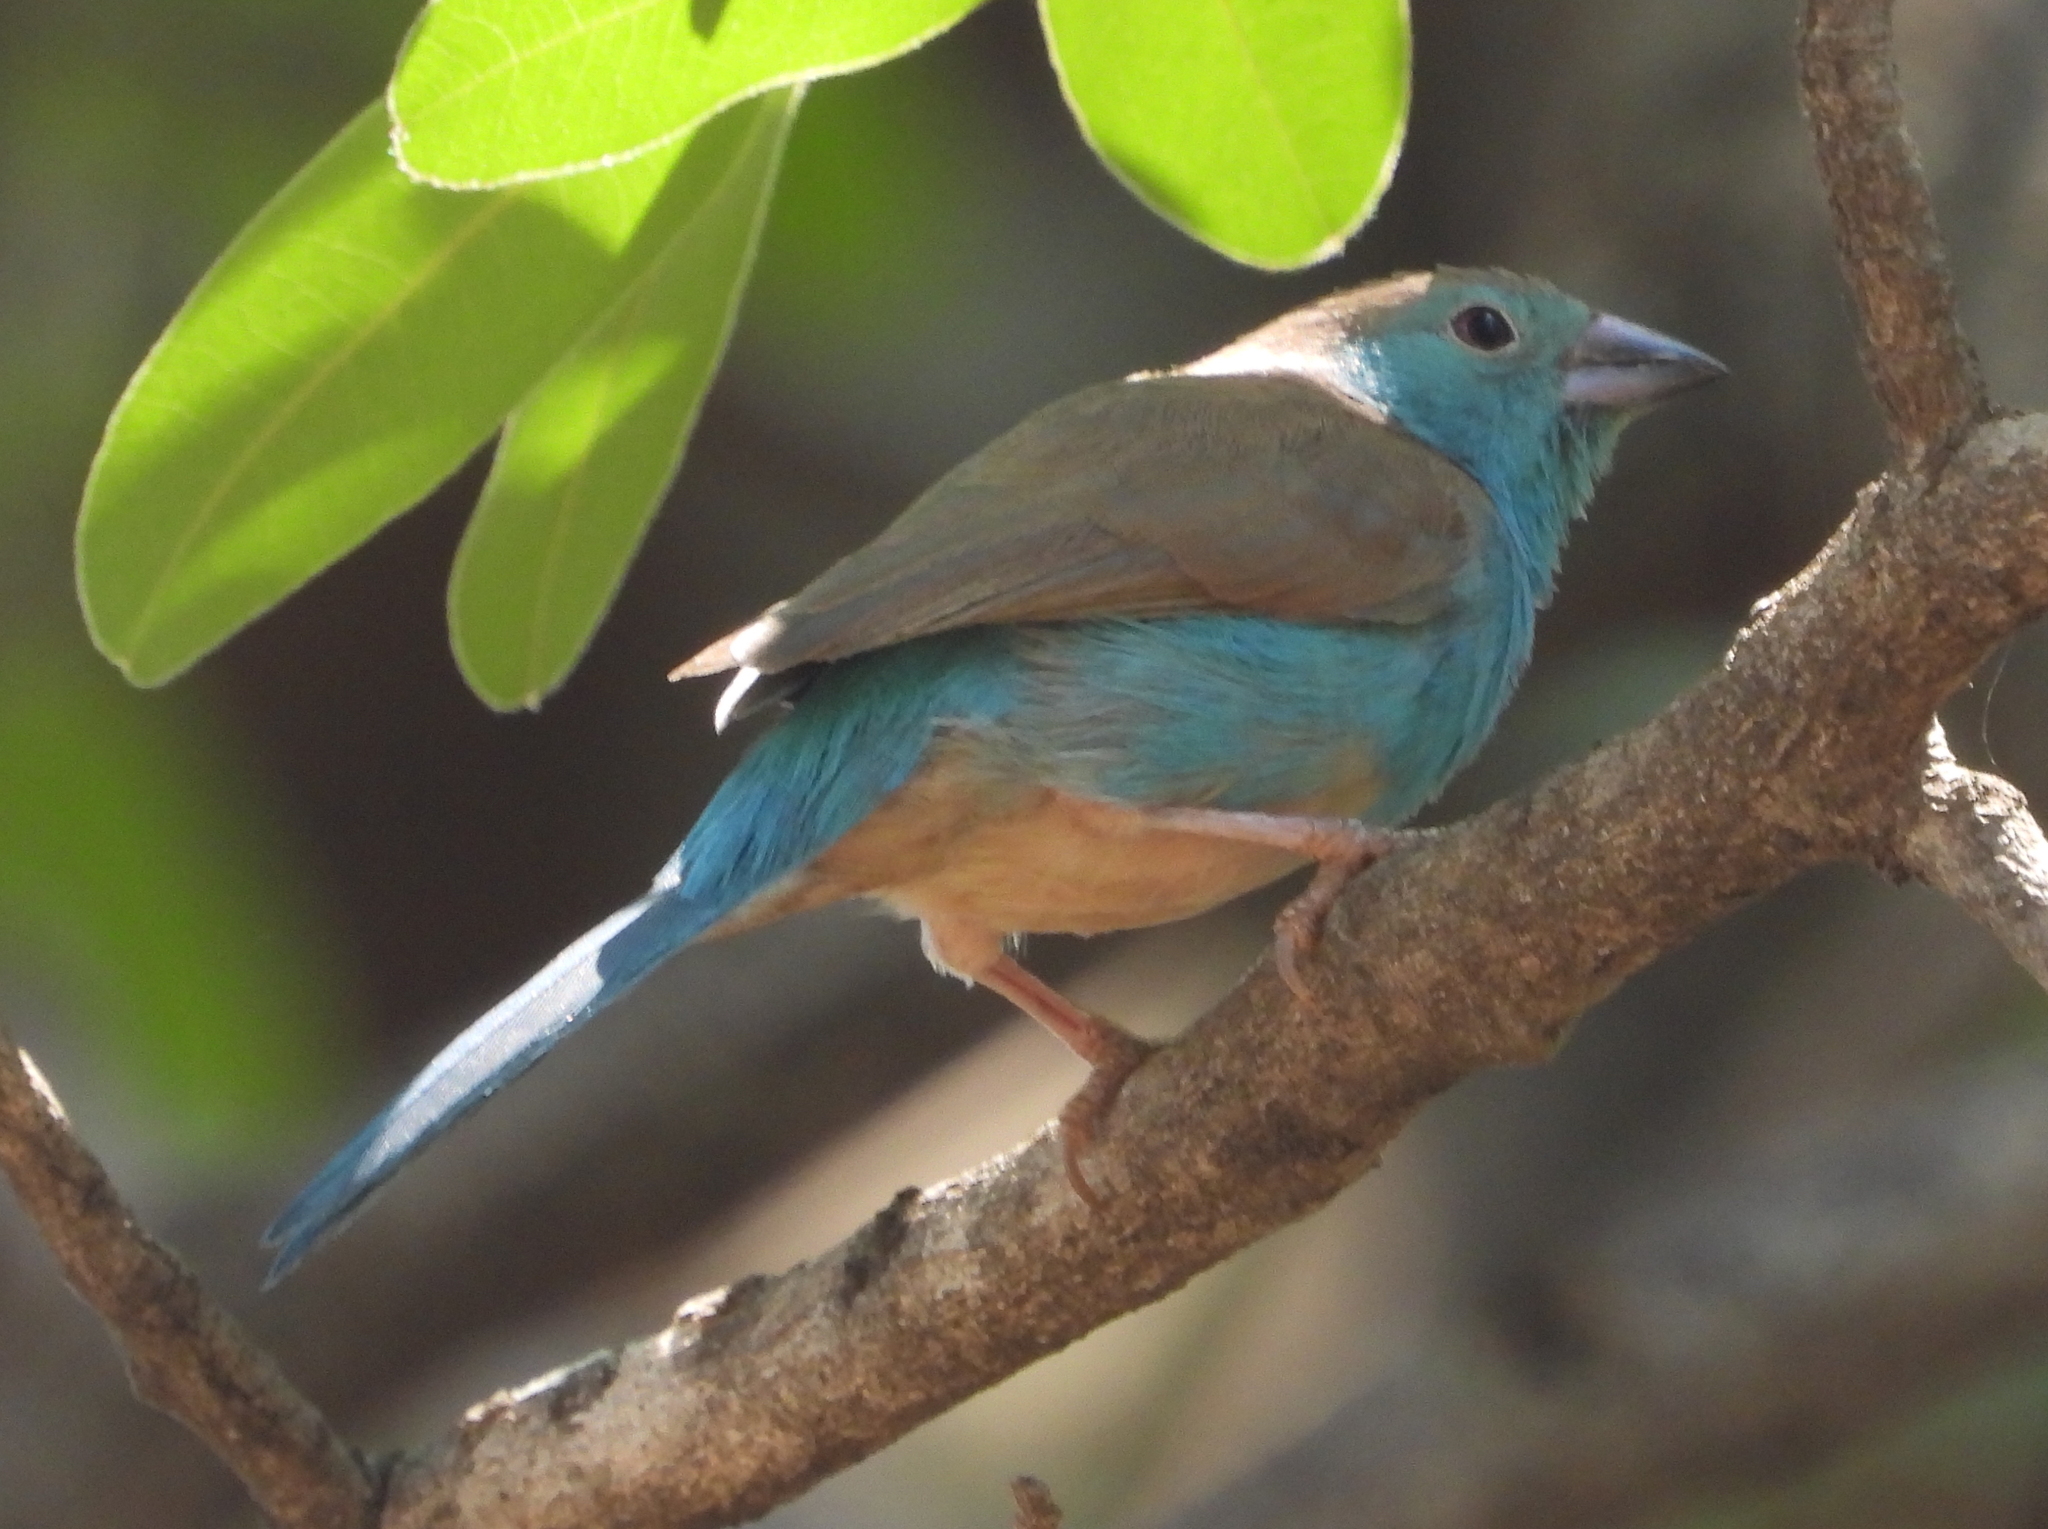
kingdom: Animalia
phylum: Chordata
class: Aves
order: Passeriformes
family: Estrildidae
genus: Uraeginthus
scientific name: Uraeginthus angolensis
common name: Blue waxbill
